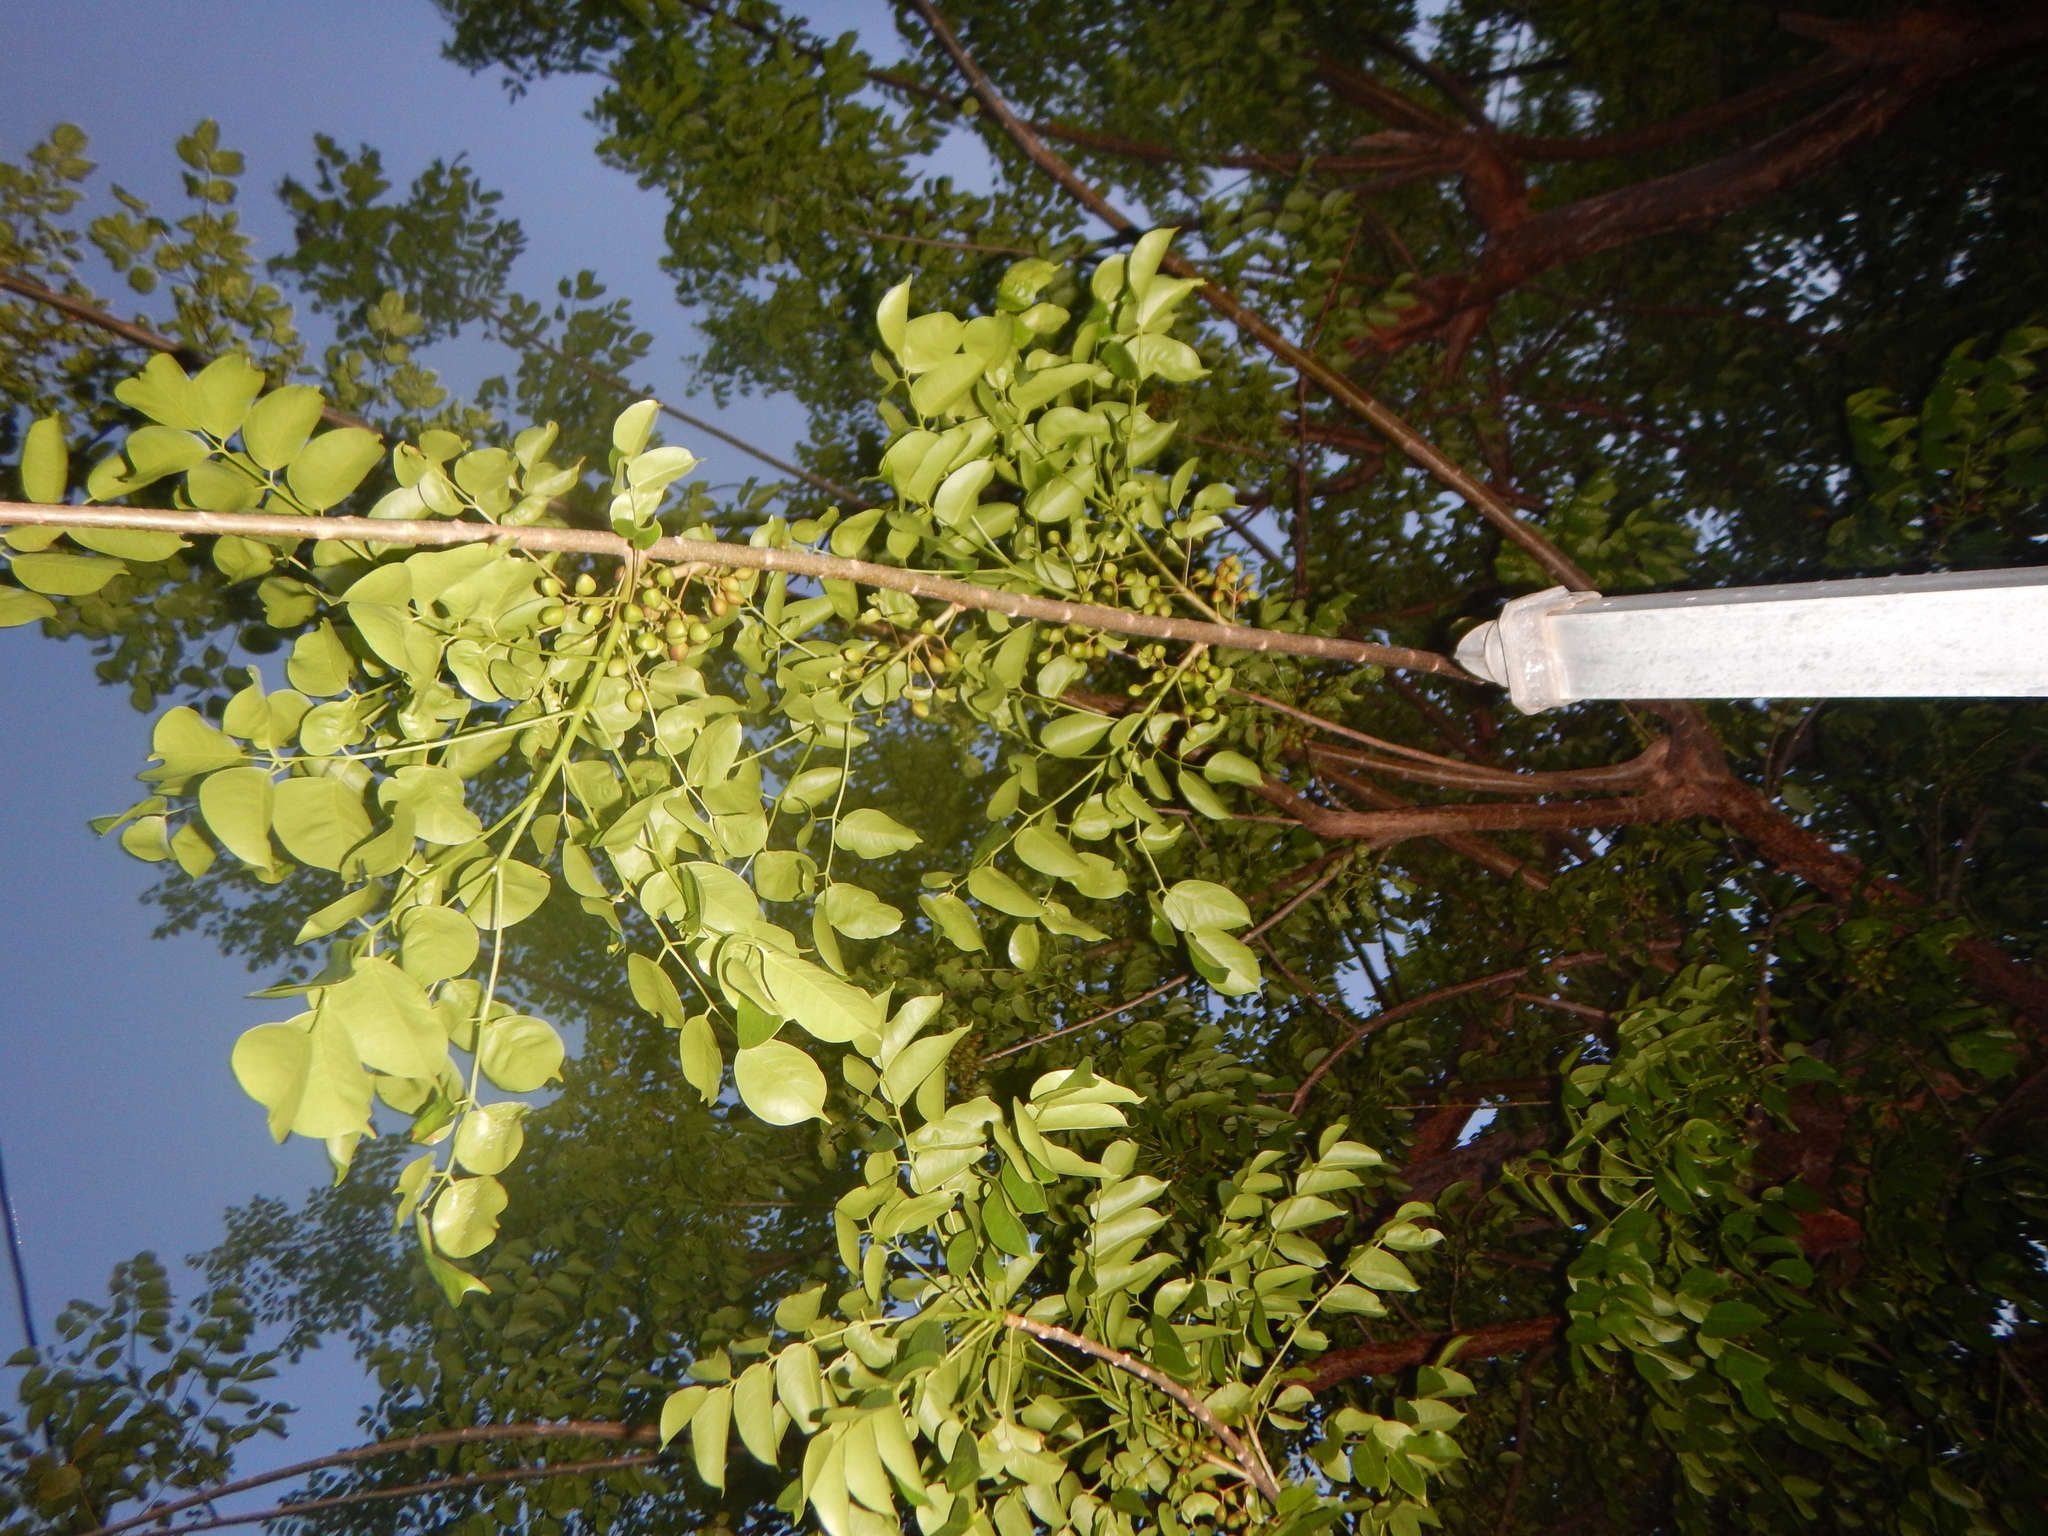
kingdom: Plantae
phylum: Tracheophyta
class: Magnoliopsida
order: Sapindales
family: Burseraceae
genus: Bursera
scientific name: Bursera simaruba
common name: Turpentine tree
